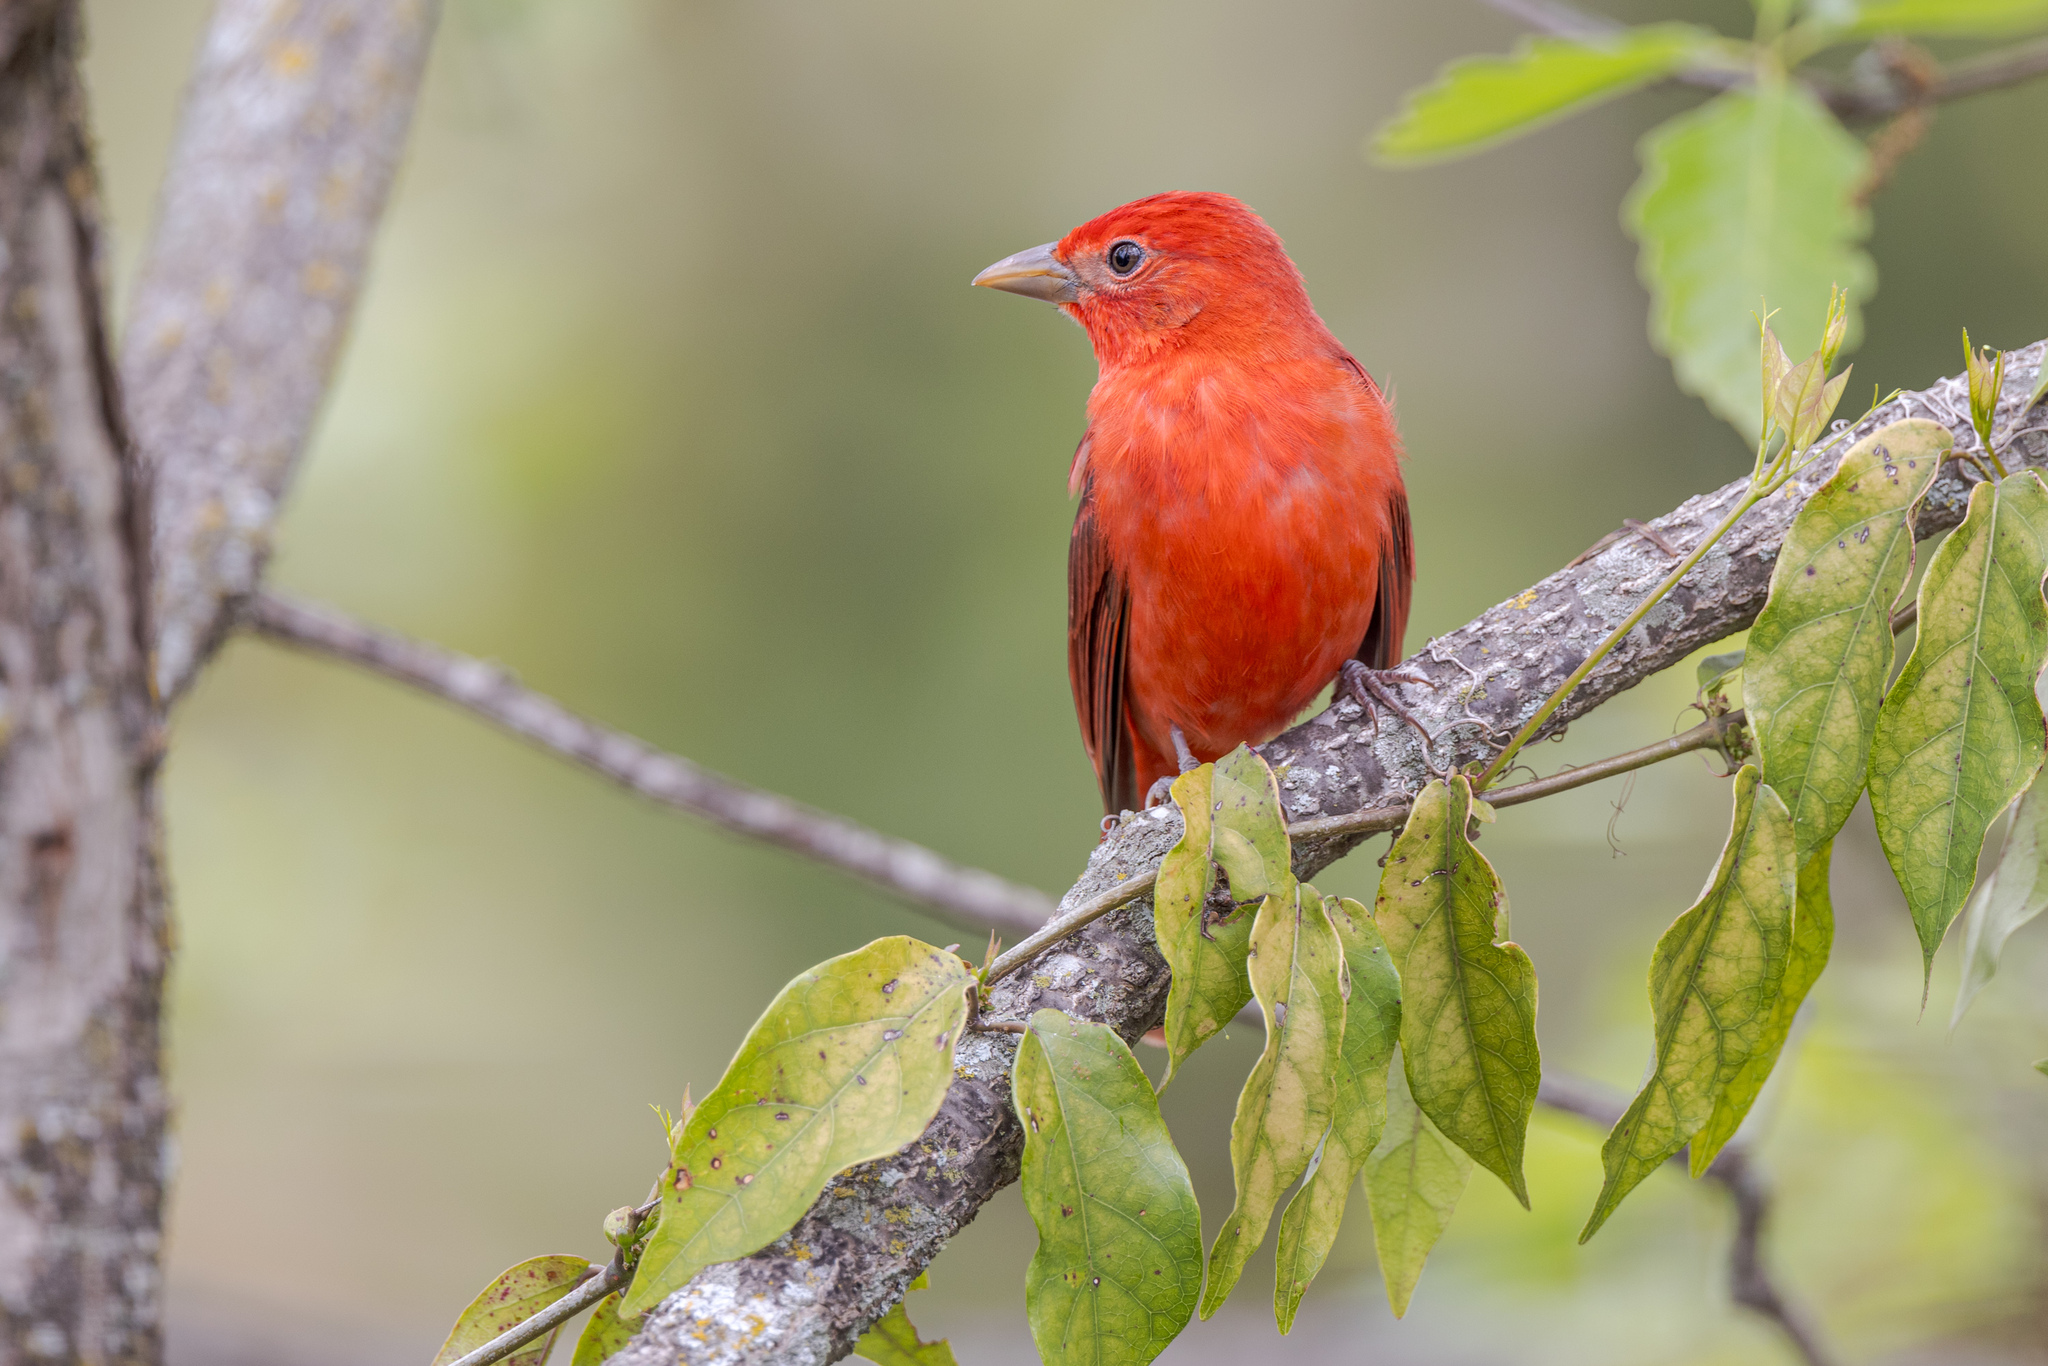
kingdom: Animalia
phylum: Chordata
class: Aves
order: Passeriformes
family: Cardinalidae
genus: Piranga
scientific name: Piranga rubra
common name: Summer tanager
